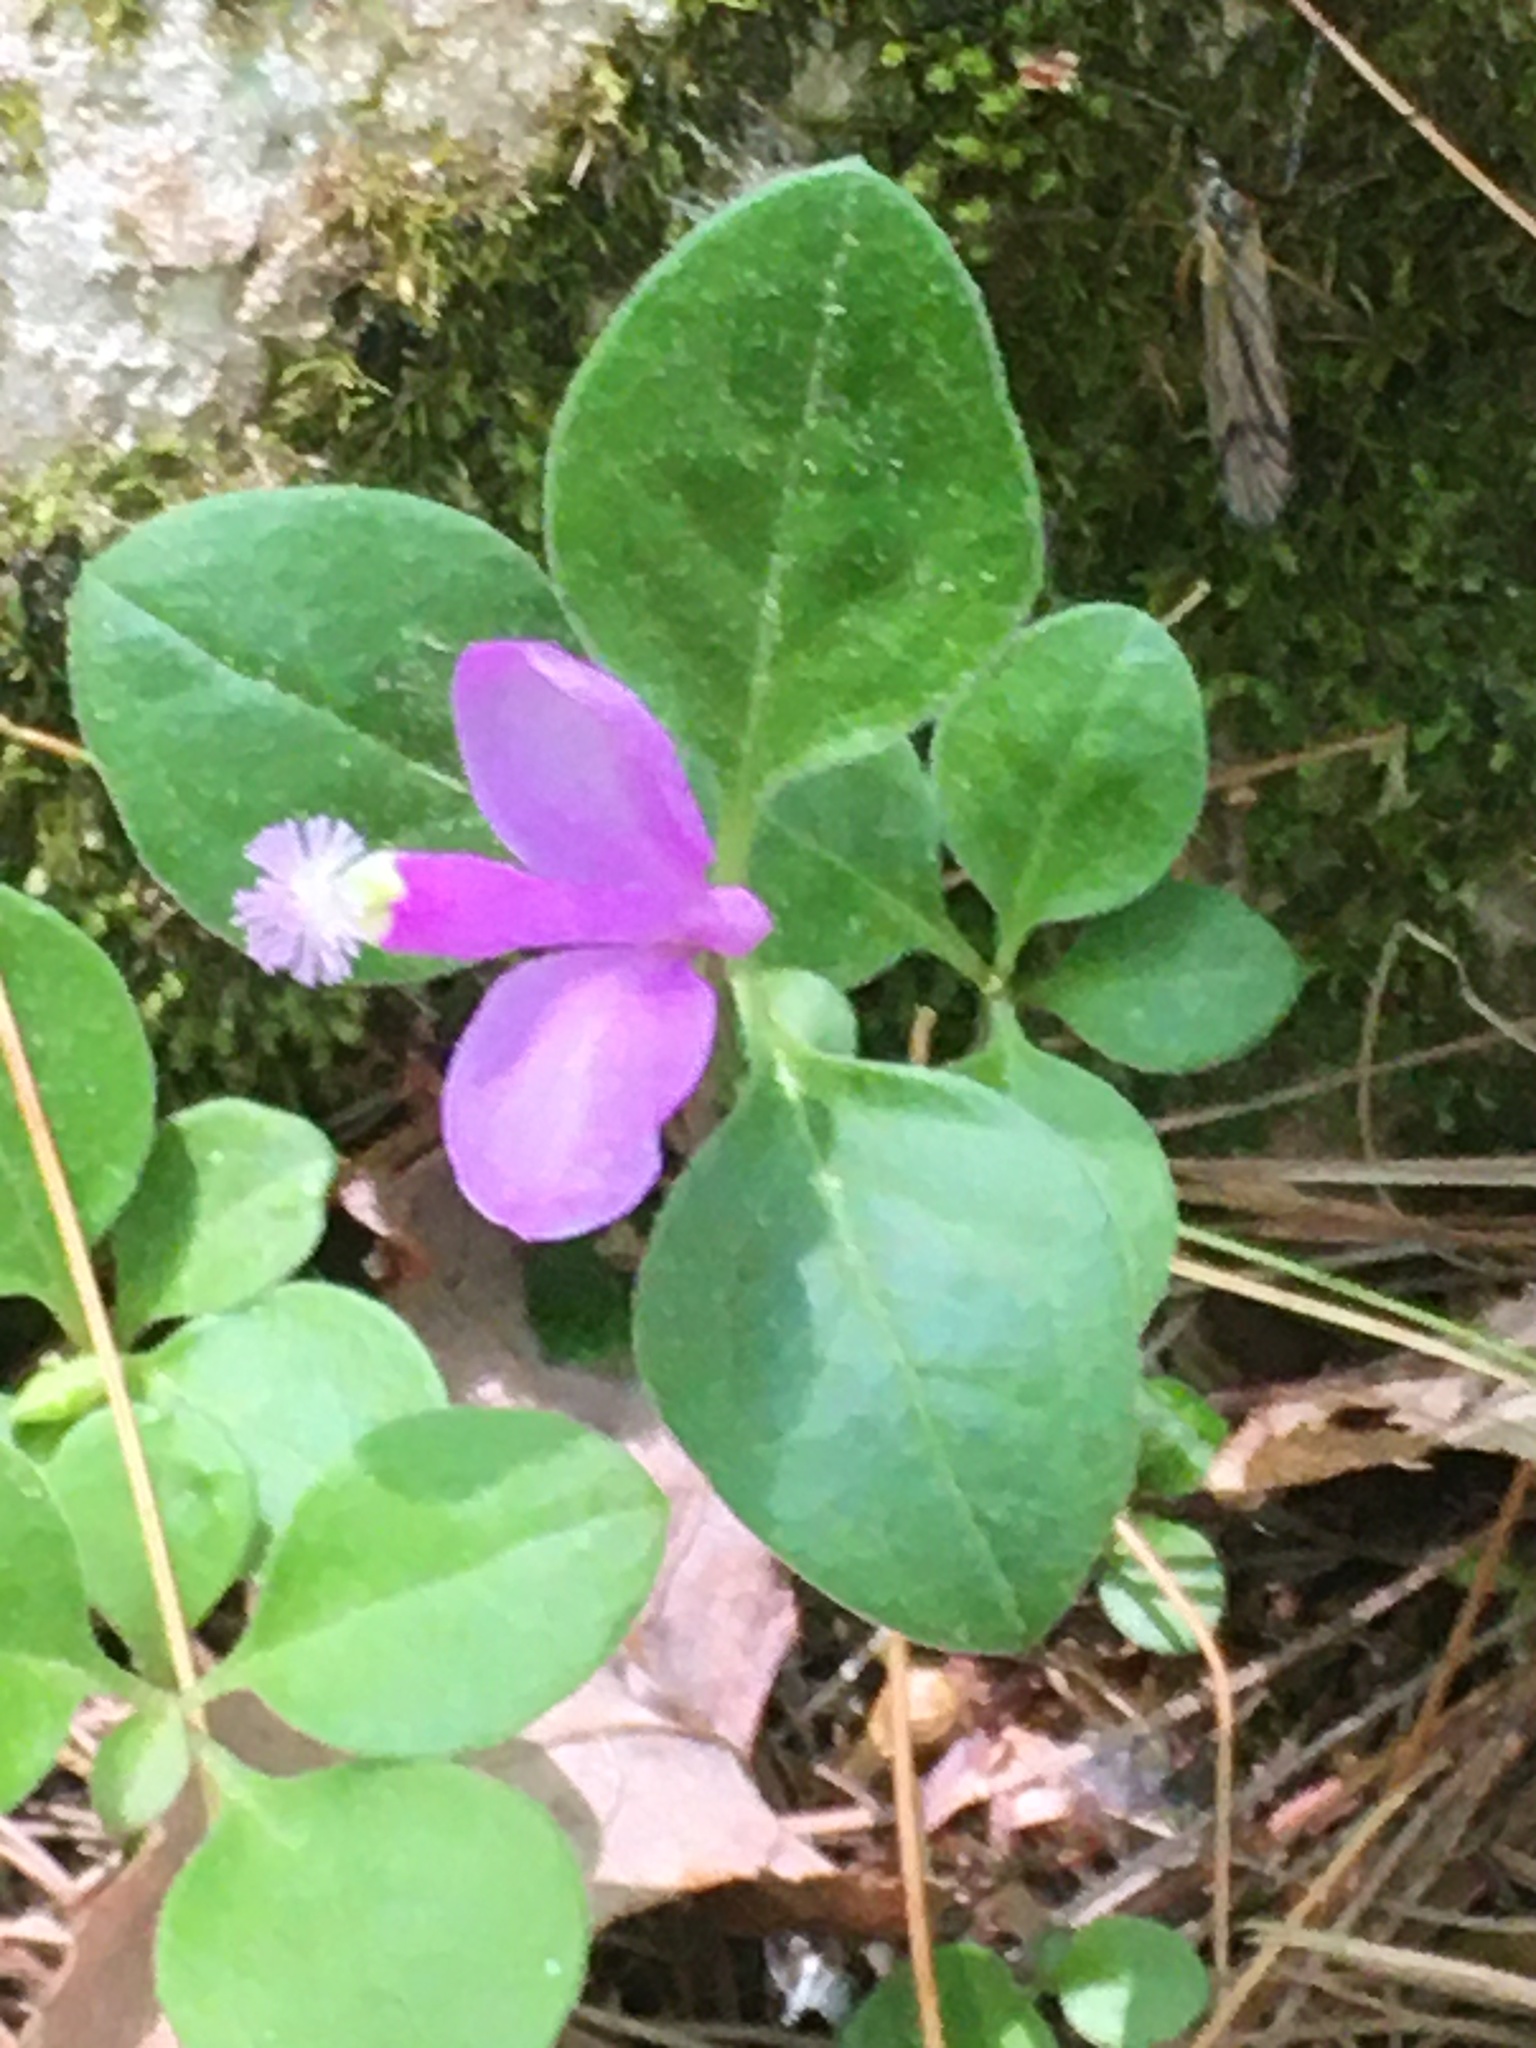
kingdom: Plantae
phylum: Tracheophyta
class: Magnoliopsida
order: Fabales
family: Polygalaceae
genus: Polygaloides
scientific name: Polygaloides paucifolia
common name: Bird-on-the-wing
